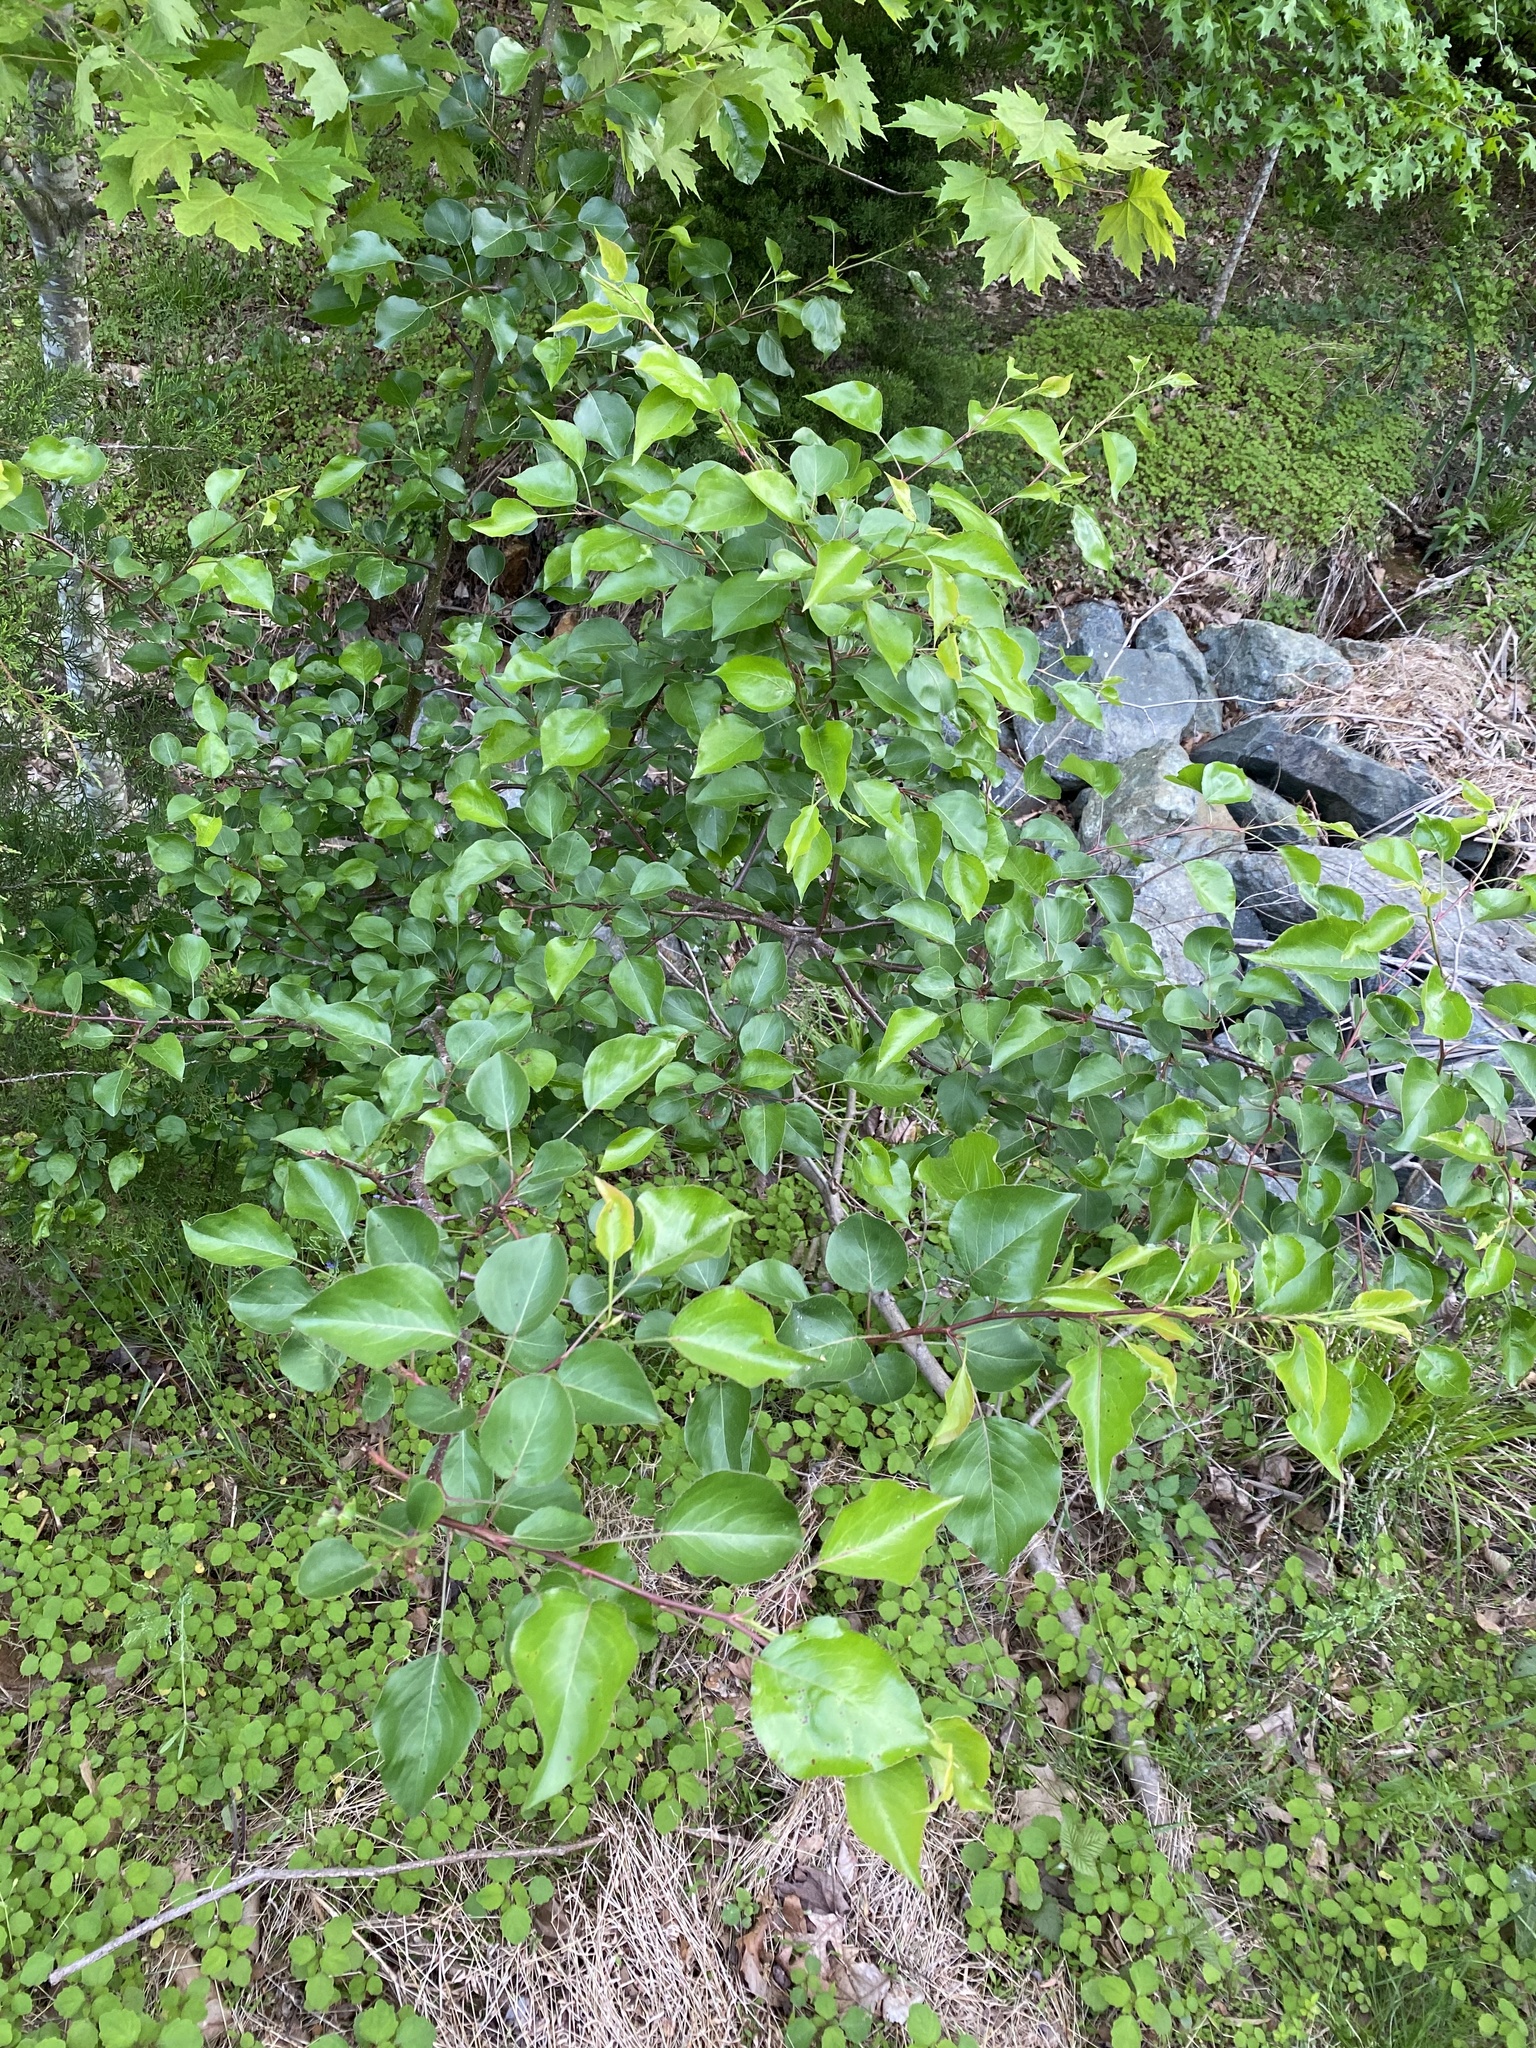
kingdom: Plantae
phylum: Tracheophyta
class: Magnoliopsida
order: Rosales
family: Rosaceae
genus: Pyrus
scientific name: Pyrus calleryana
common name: Callery pear
